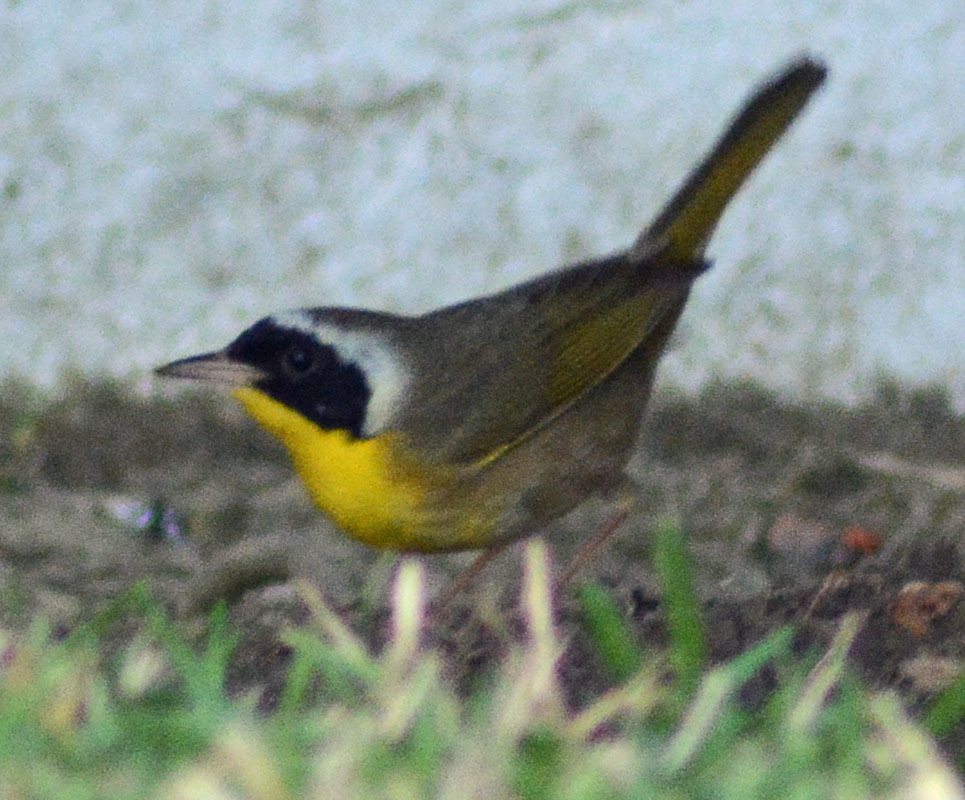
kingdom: Animalia
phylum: Chordata
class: Aves
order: Passeriformes
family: Parulidae
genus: Geothlypis
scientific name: Geothlypis trichas
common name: Common yellowthroat
